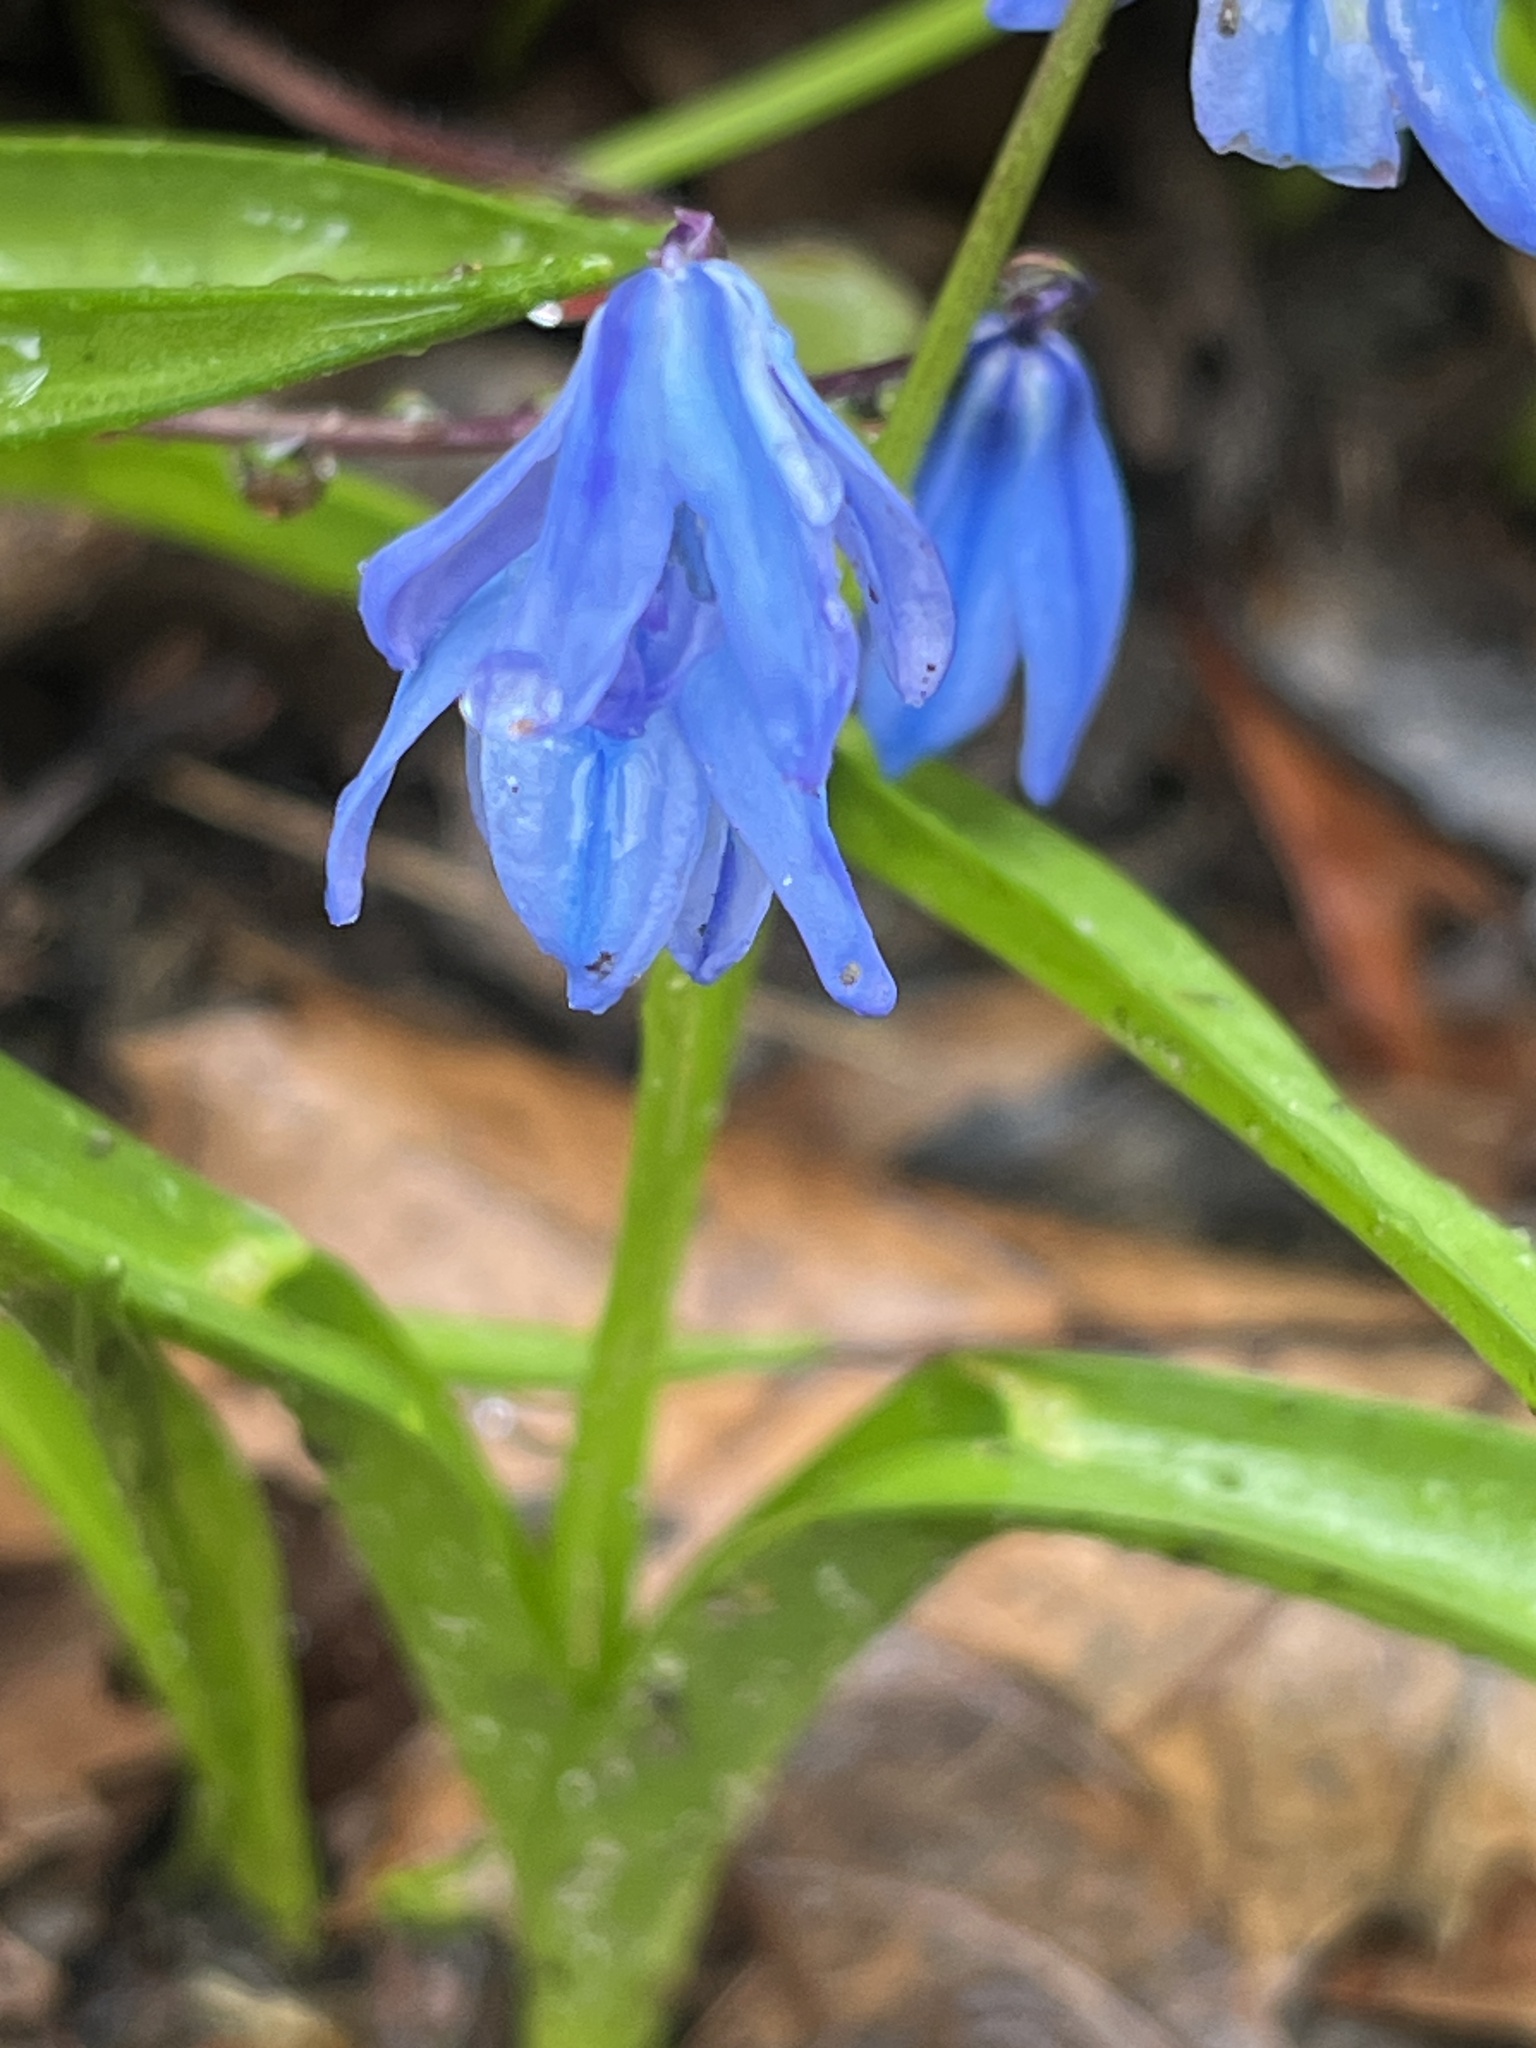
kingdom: Plantae
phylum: Tracheophyta
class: Liliopsida
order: Asparagales
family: Asparagaceae
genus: Scilla
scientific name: Scilla siberica
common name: Siberian squill
